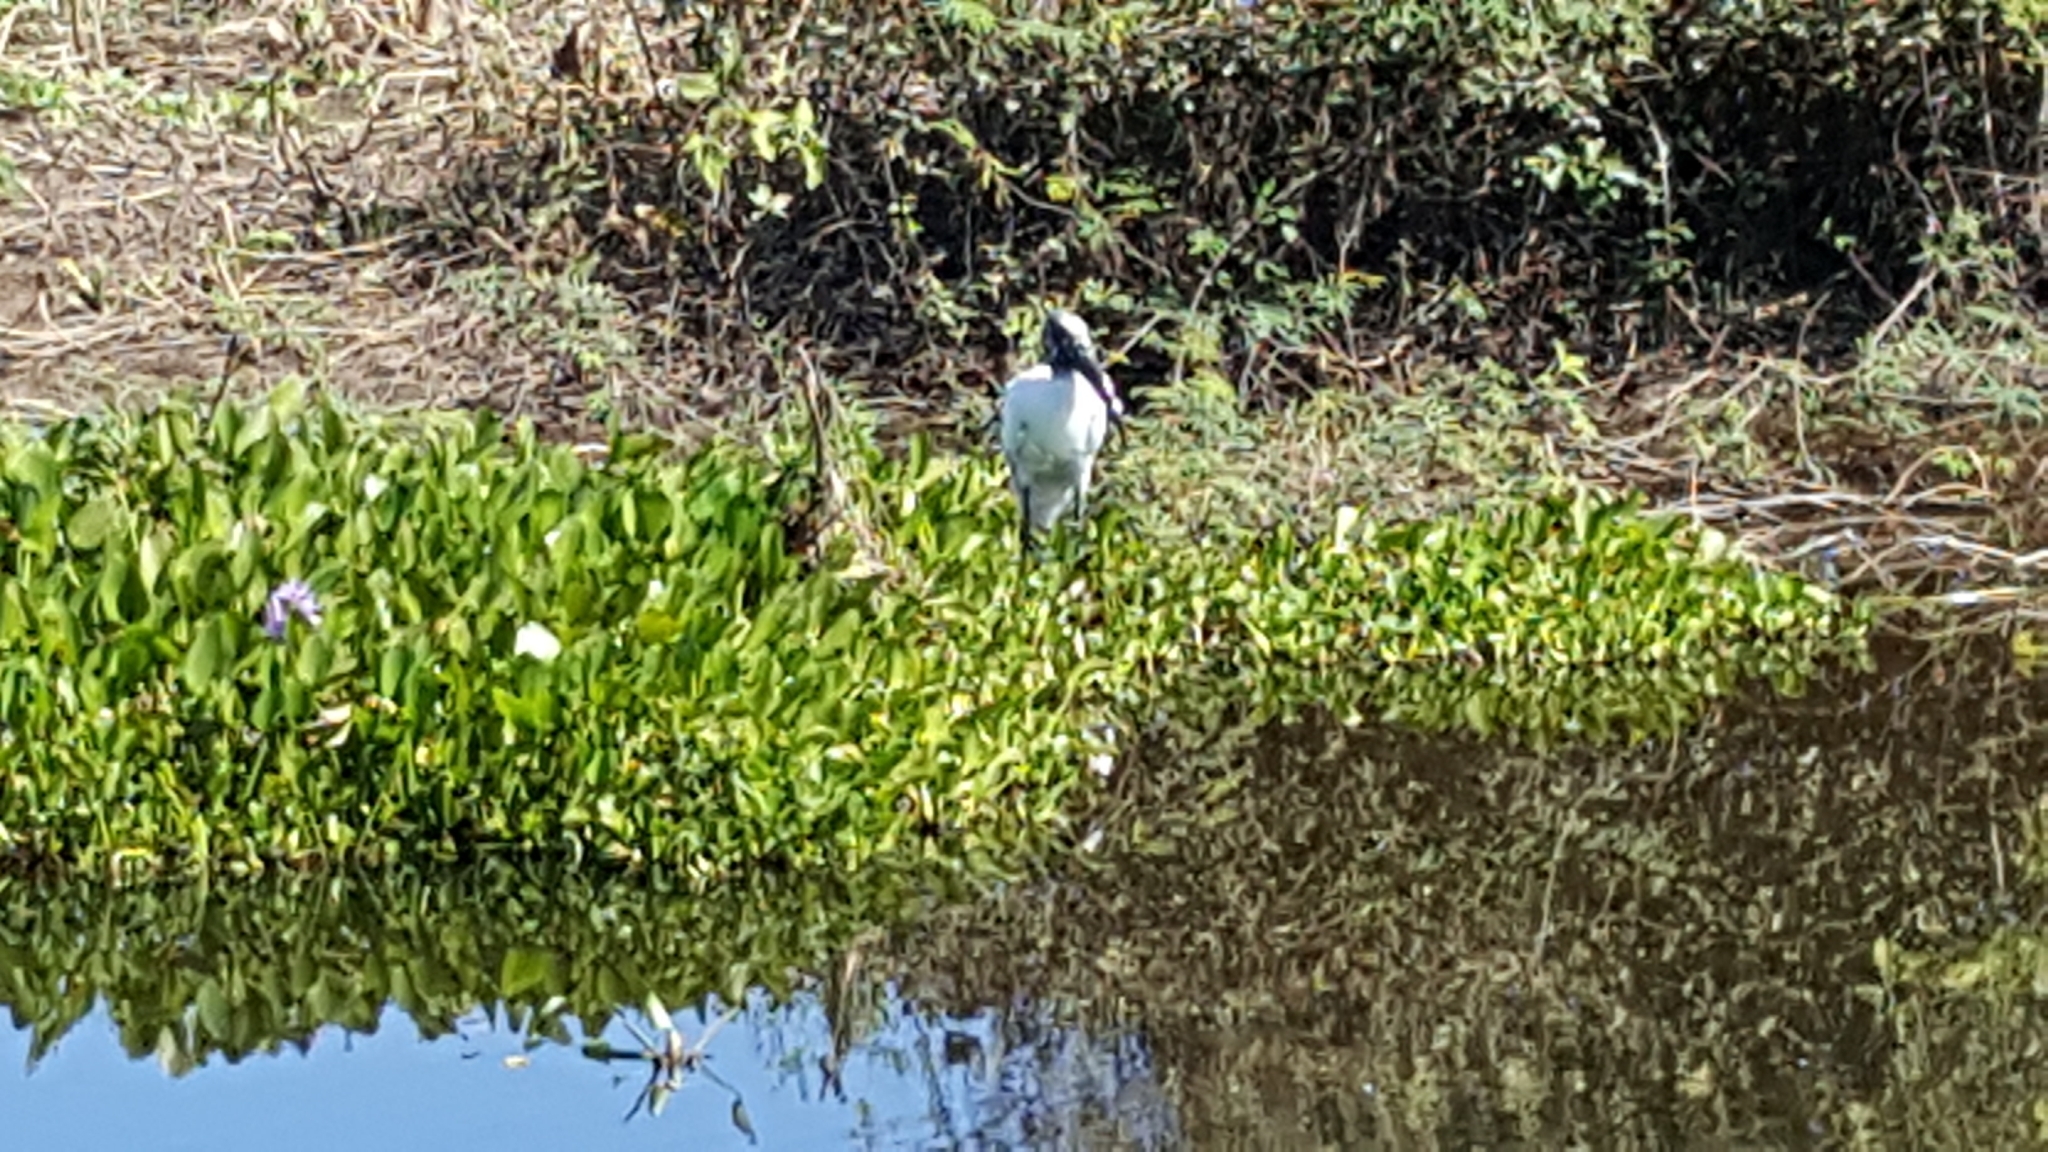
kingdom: Animalia
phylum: Chordata
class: Aves
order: Ciconiiformes
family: Ciconiidae
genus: Mycteria
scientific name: Mycteria americana
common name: Wood stork
